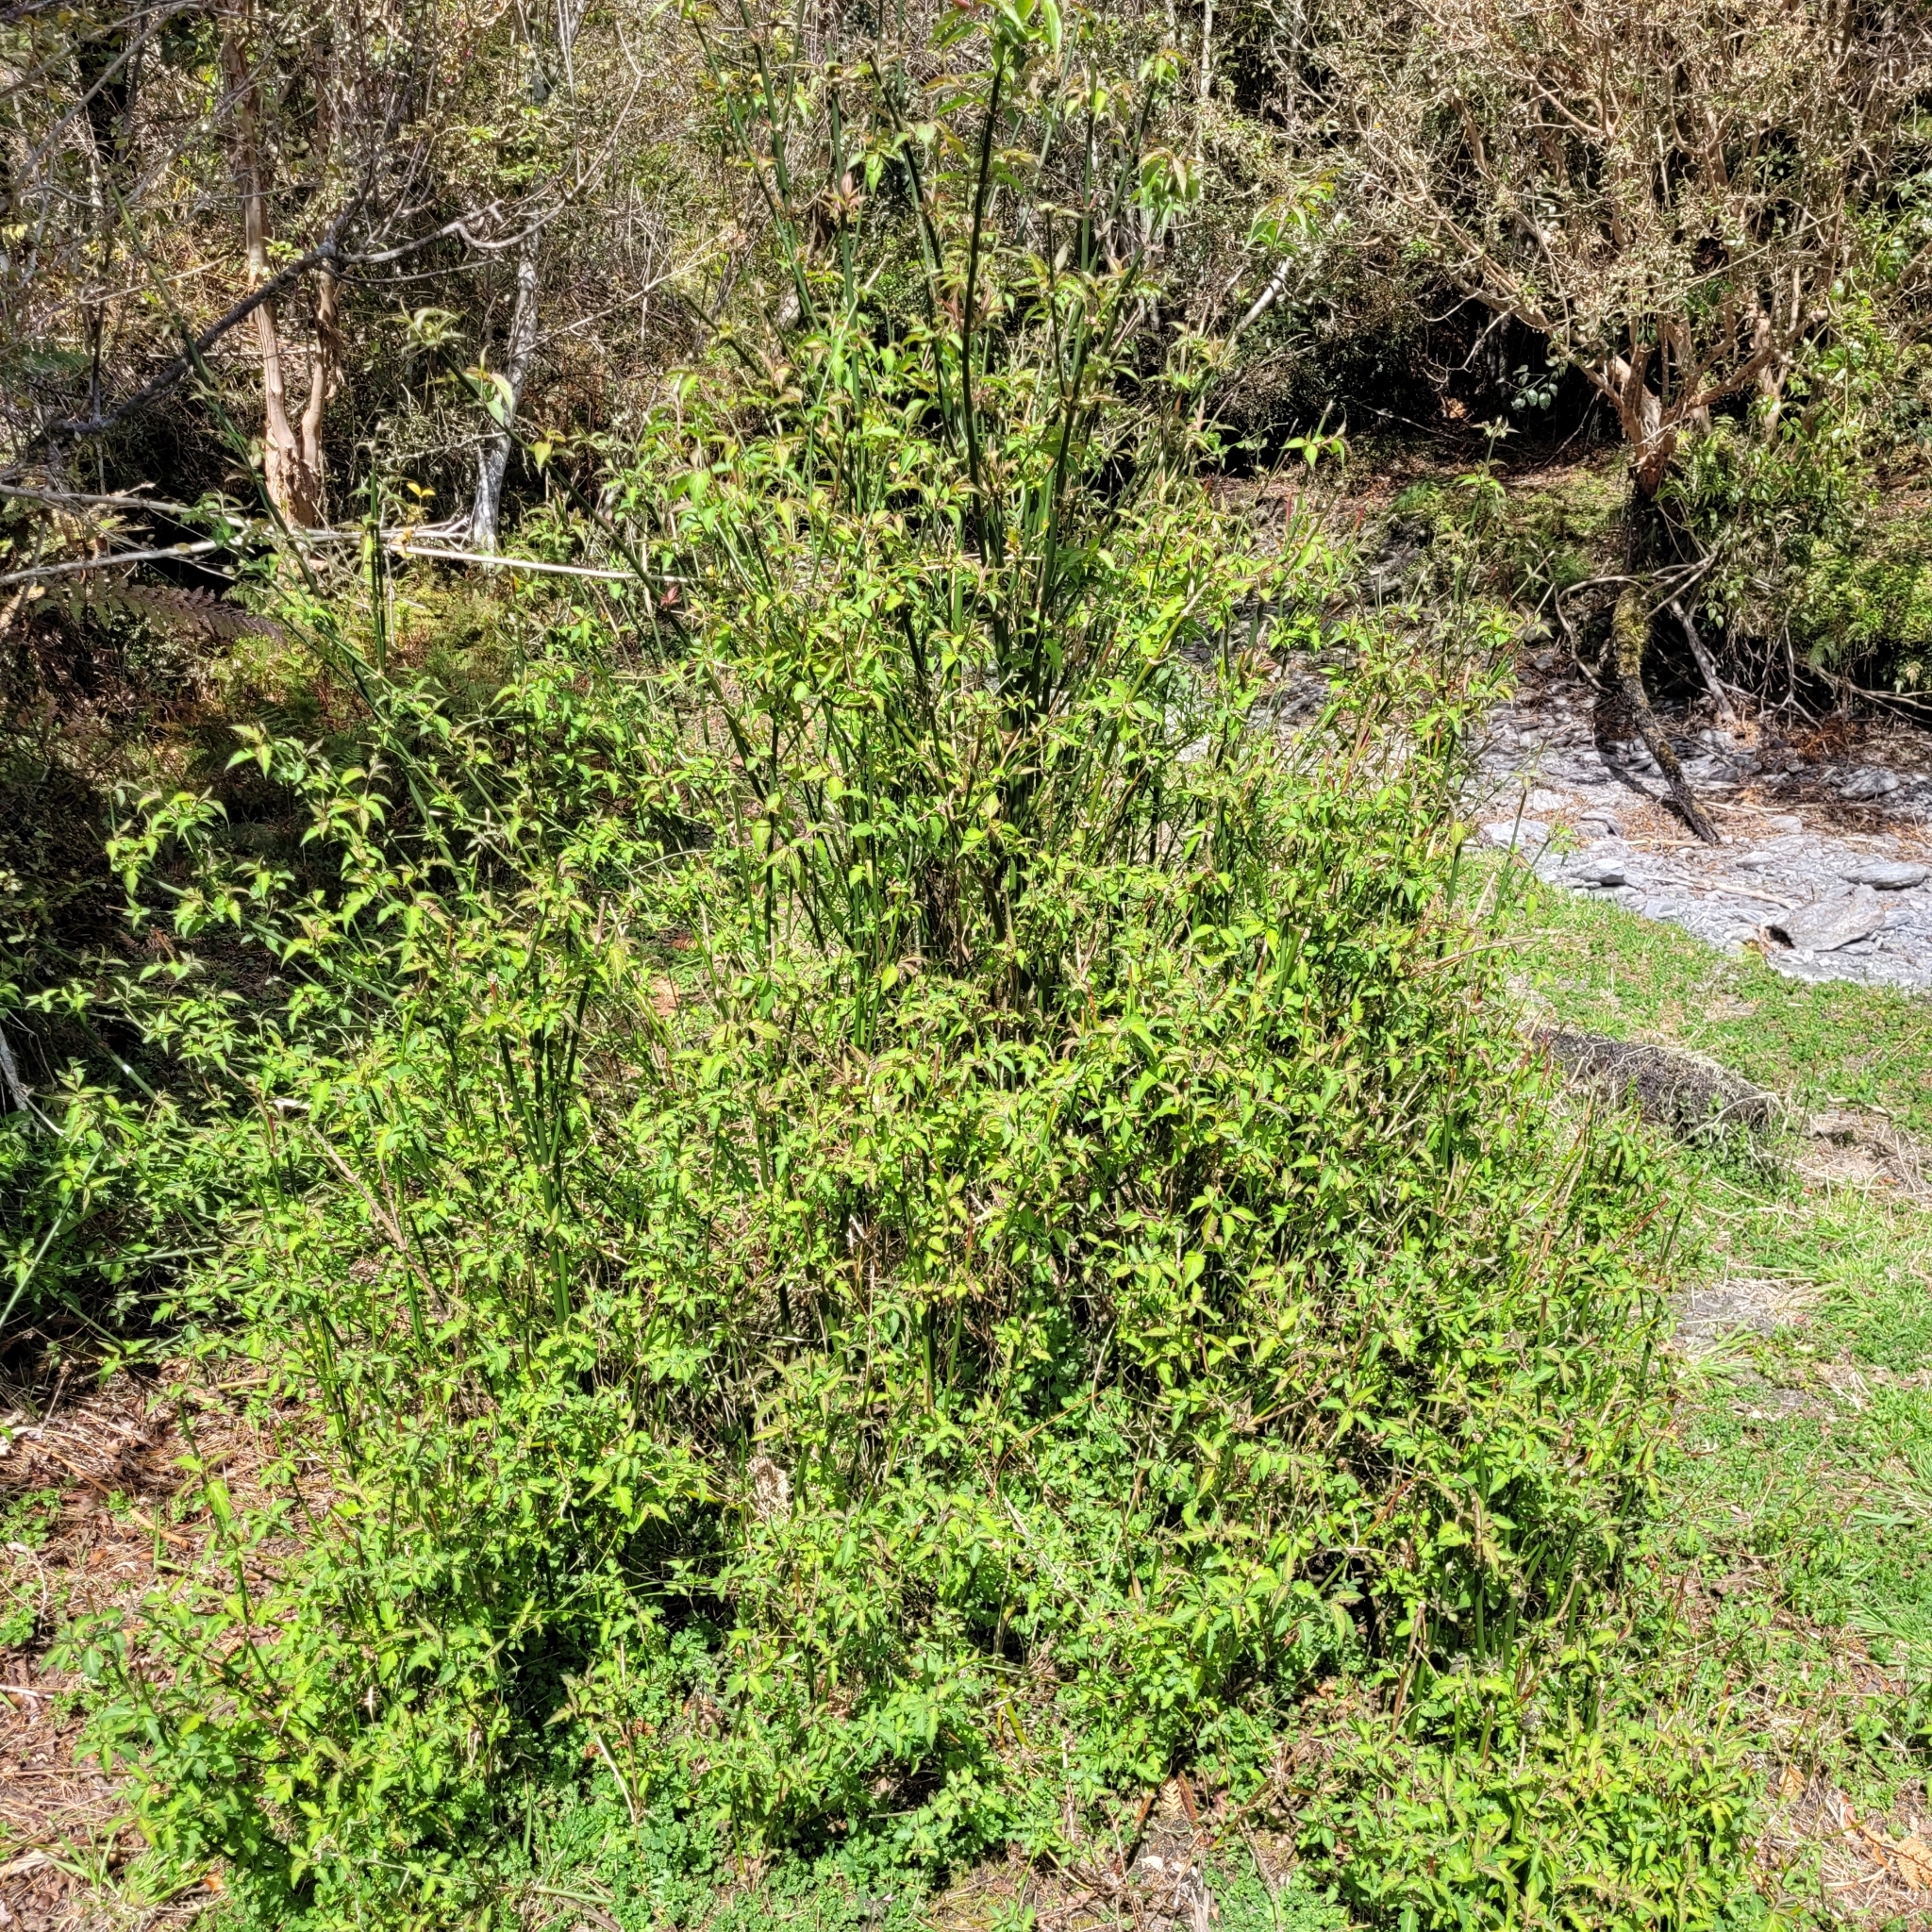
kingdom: Plantae
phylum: Tracheophyta
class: Magnoliopsida
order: Dipsacales
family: Caprifoliaceae
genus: Leycesteria
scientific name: Leycesteria formosa
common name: Himalayan honeysuckle
